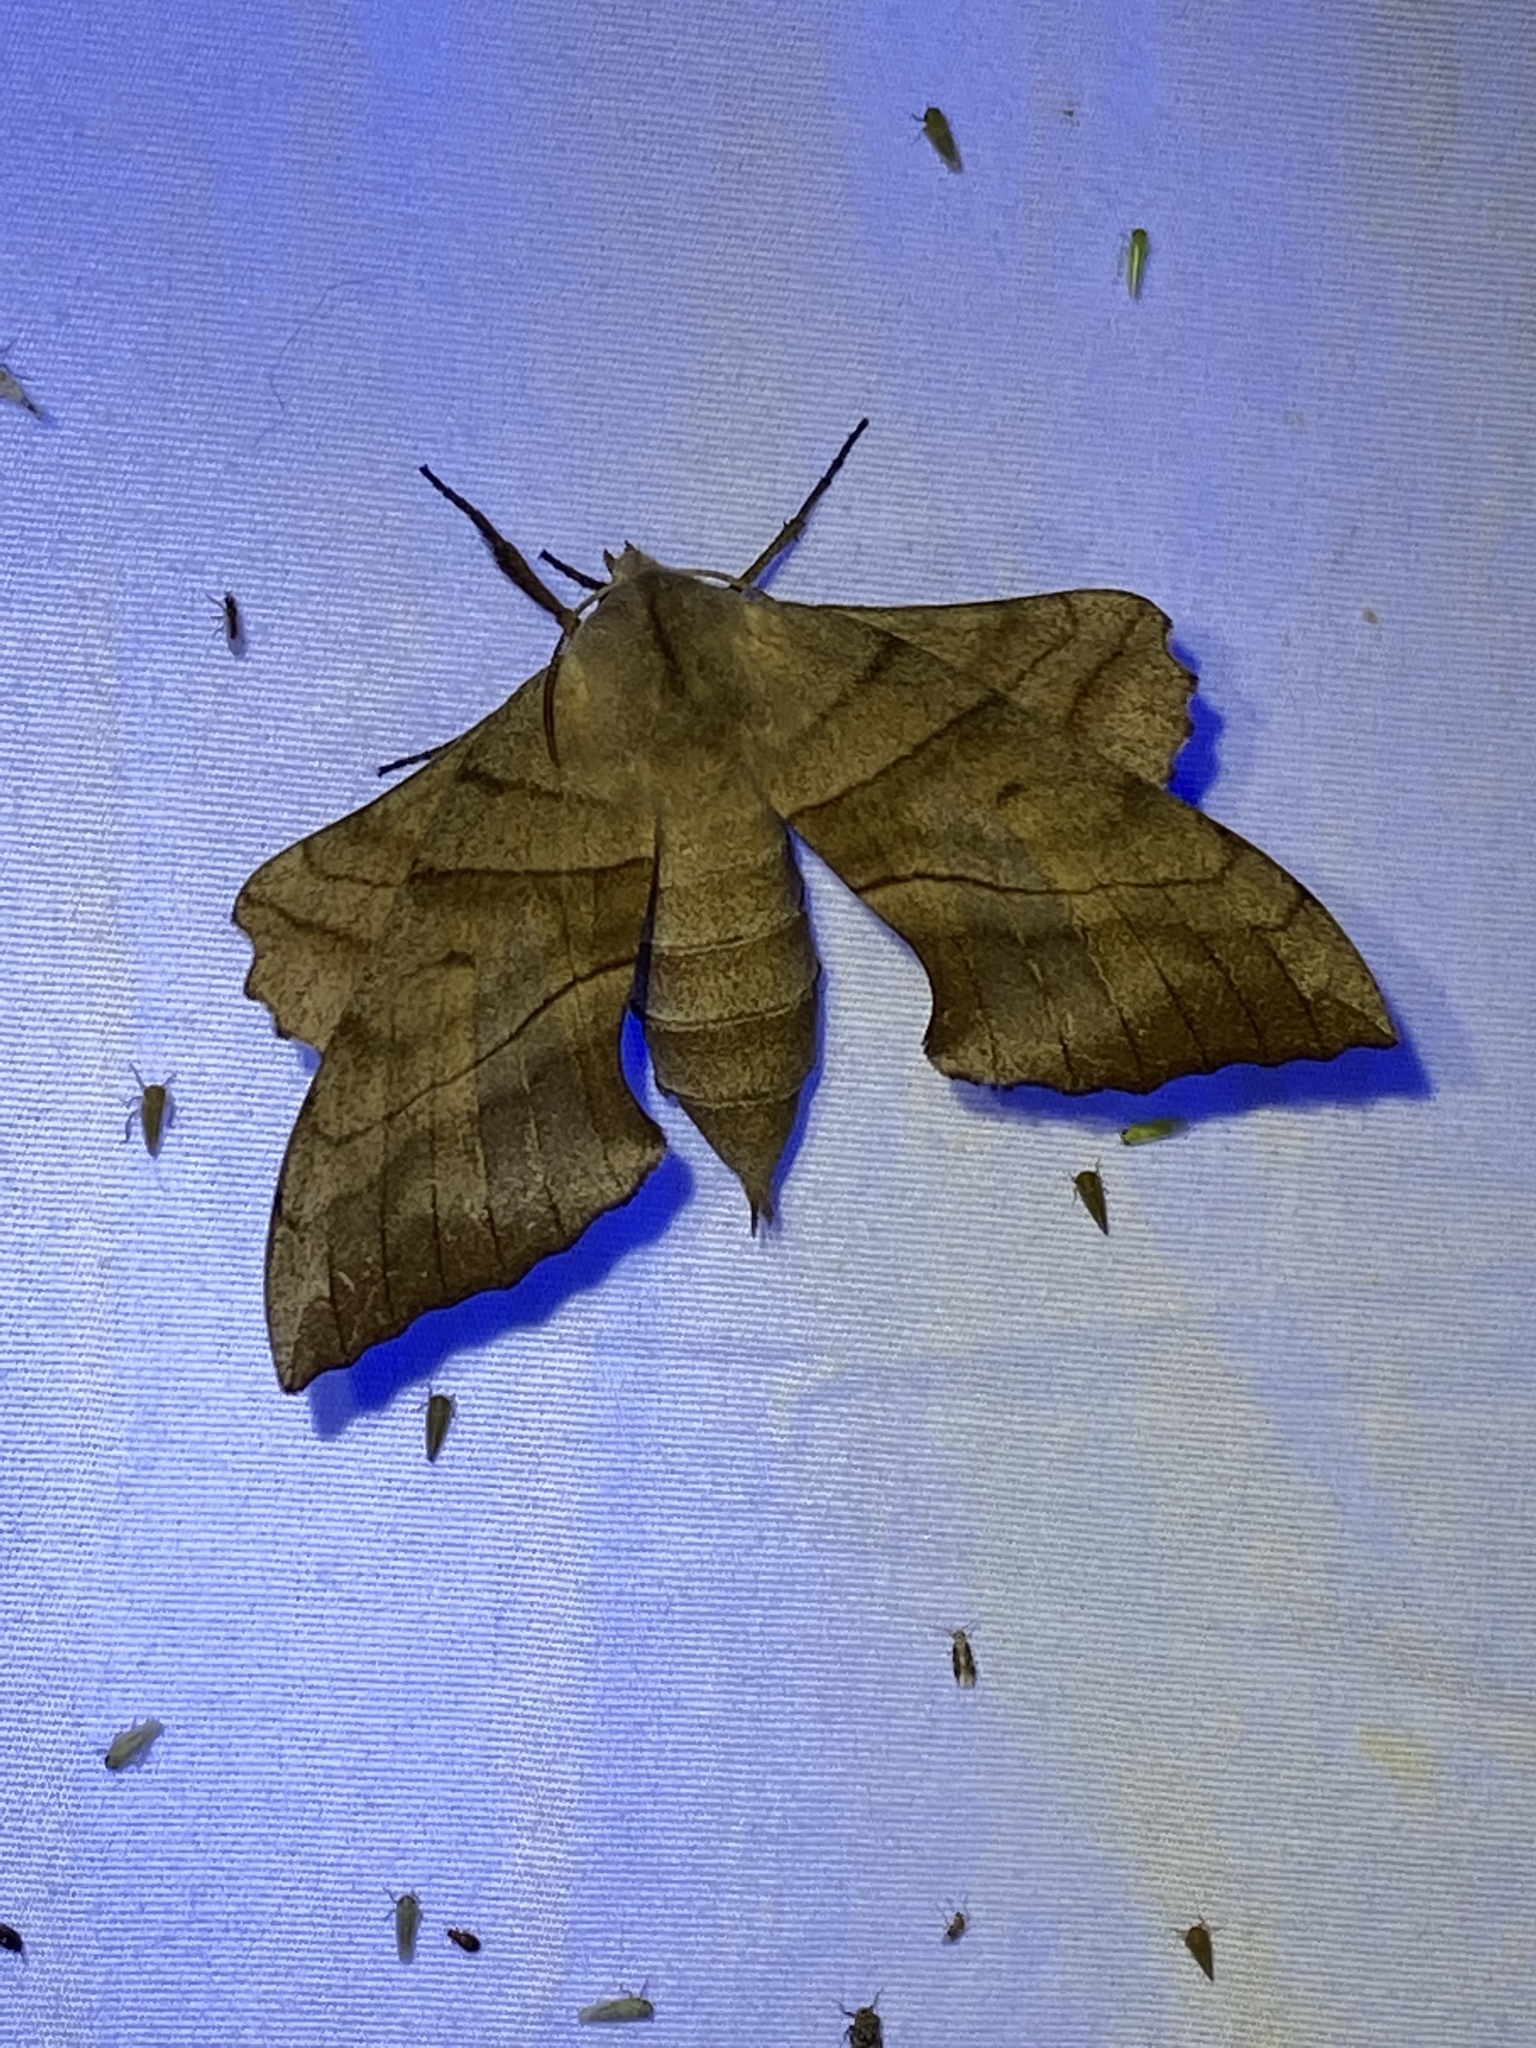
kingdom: Animalia
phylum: Arthropoda
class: Insecta
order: Lepidoptera
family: Sphingidae
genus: Amorpha
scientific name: Amorpha juglandis
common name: Walnut sphinx
